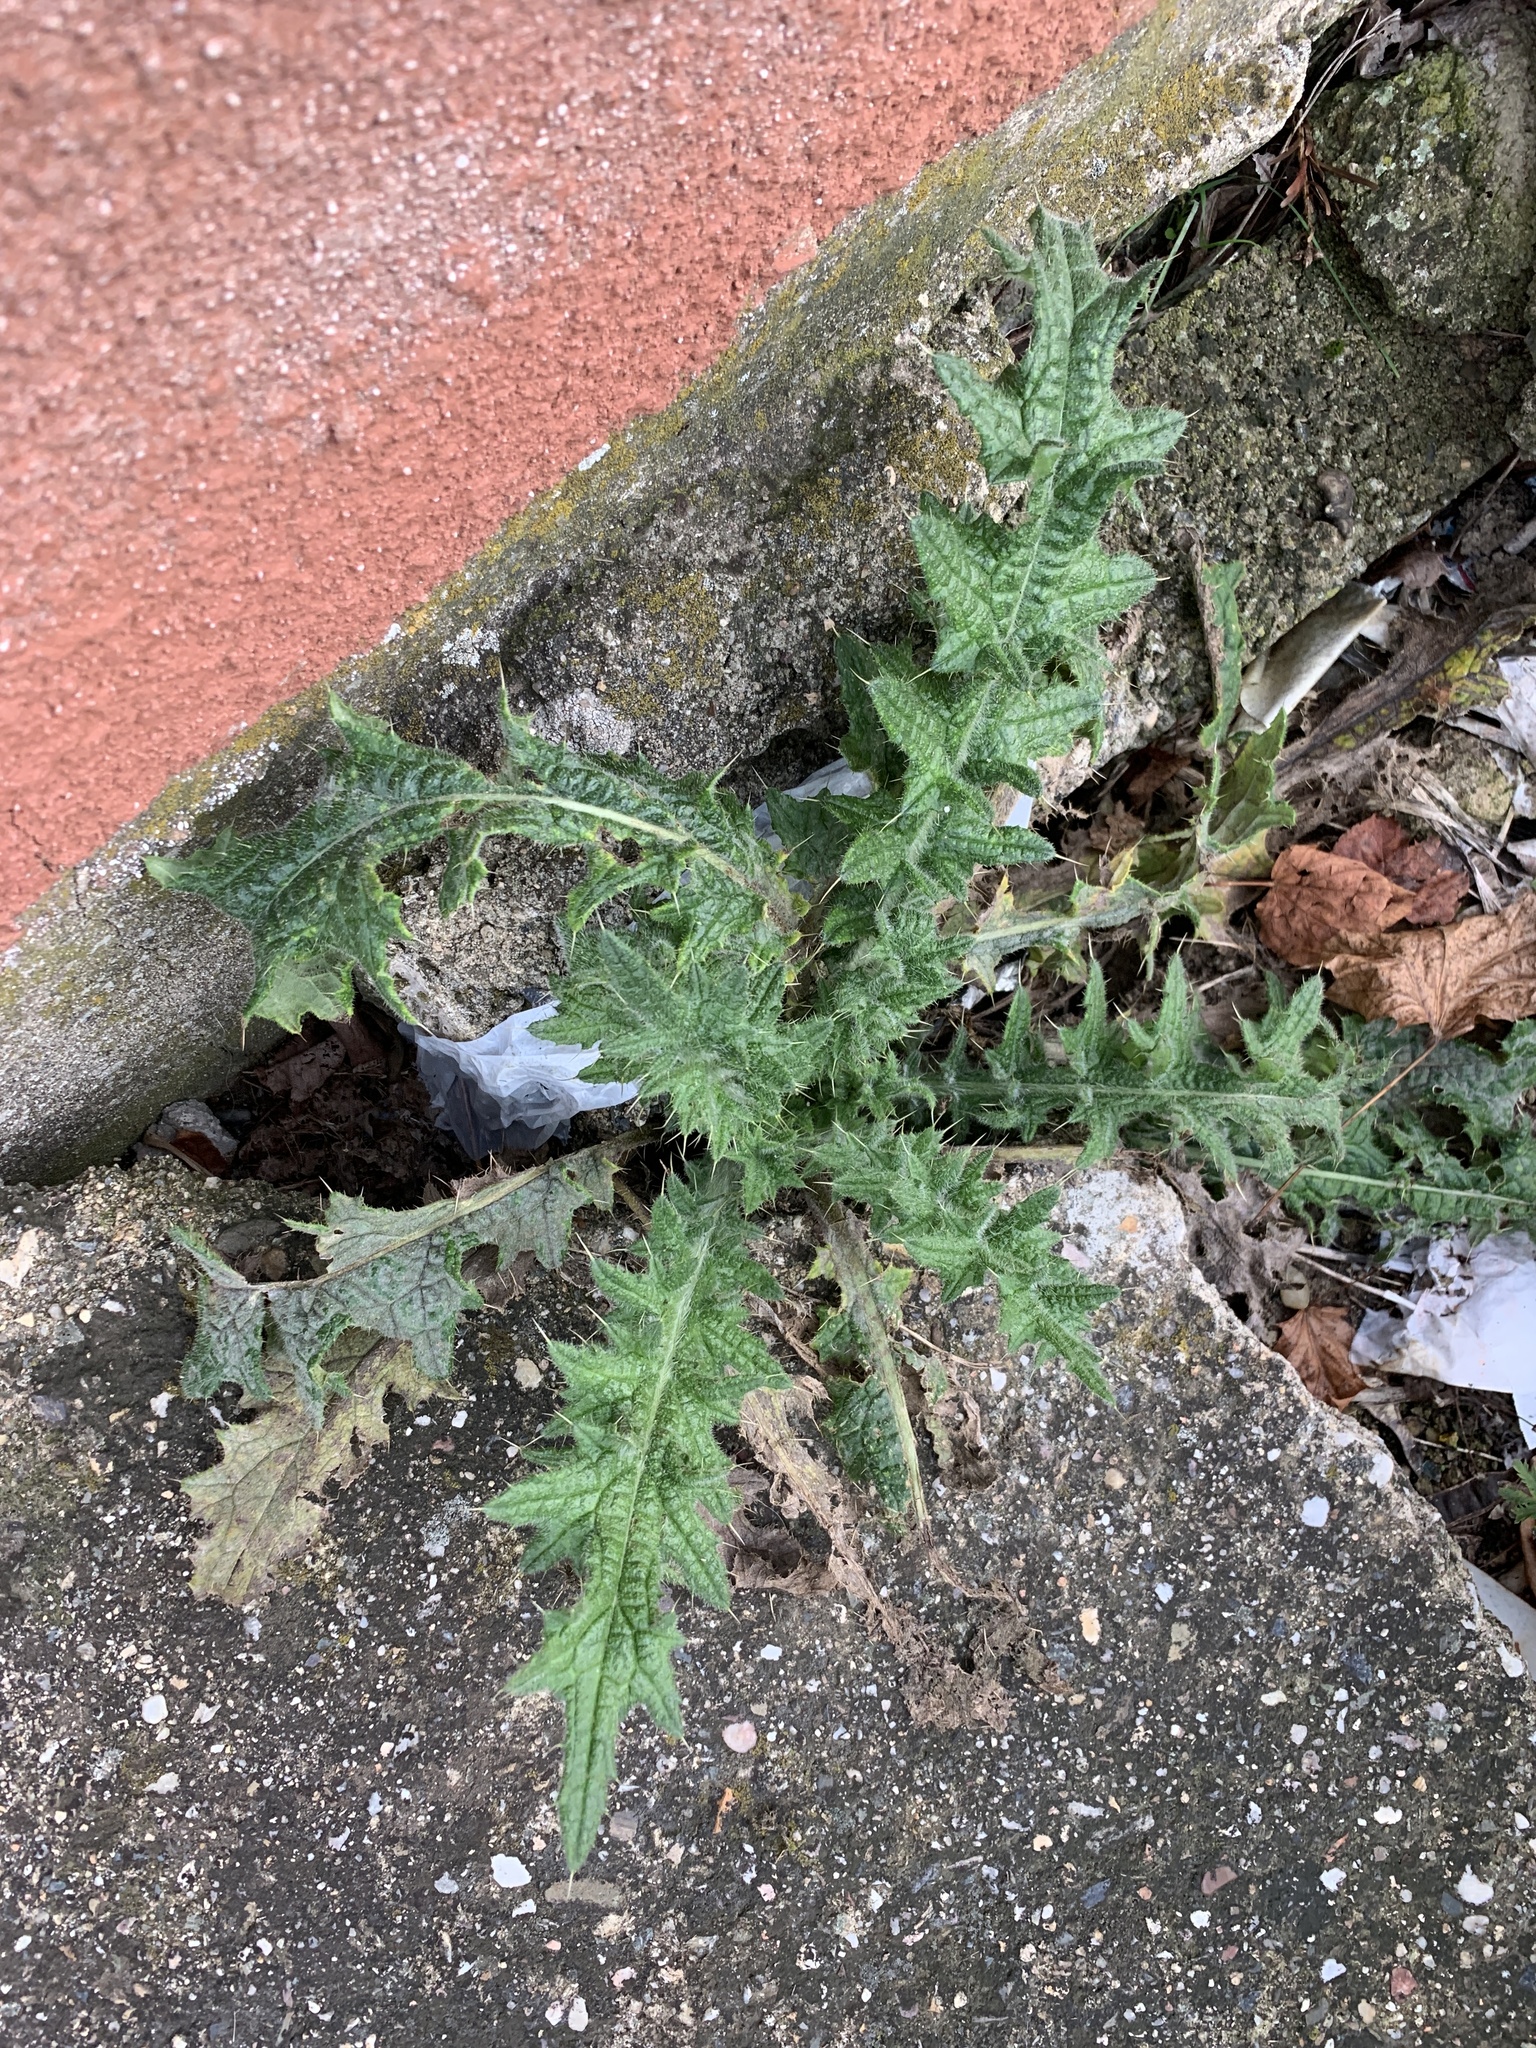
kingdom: Plantae
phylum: Tracheophyta
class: Magnoliopsida
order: Asterales
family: Asteraceae
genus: Cirsium
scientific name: Cirsium vulgare
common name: Bull thistle
